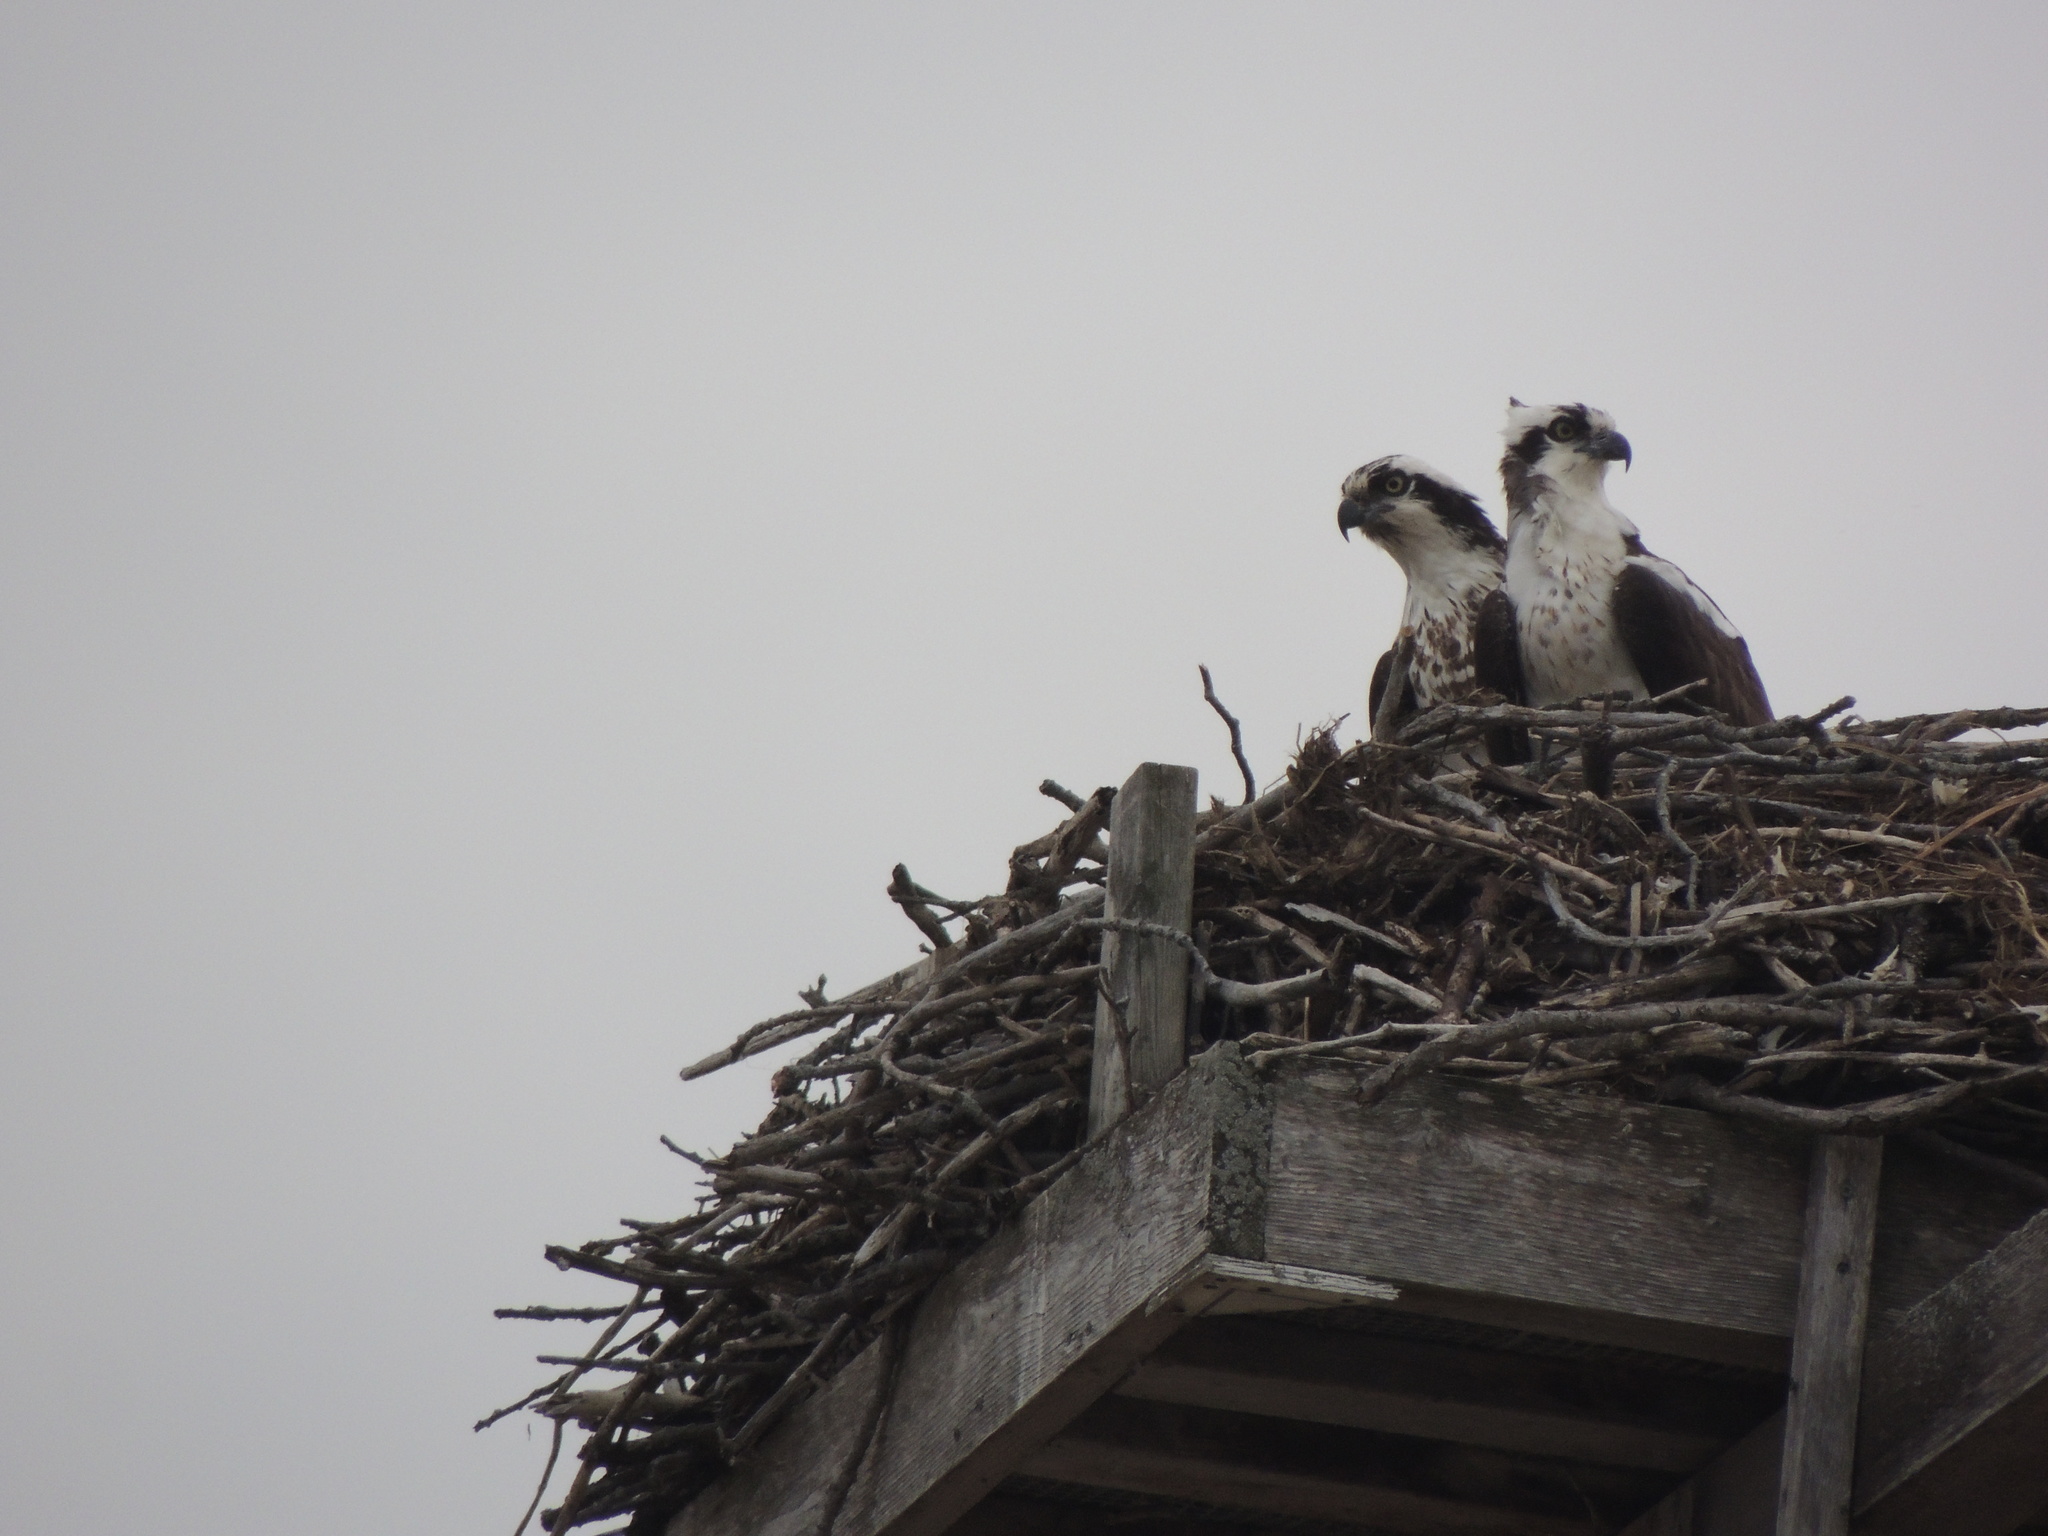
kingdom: Animalia
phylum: Chordata
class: Aves
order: Accipitriformes
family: Pandionidae
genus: Pandion
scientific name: Pandion haliaetus
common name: Osprey
